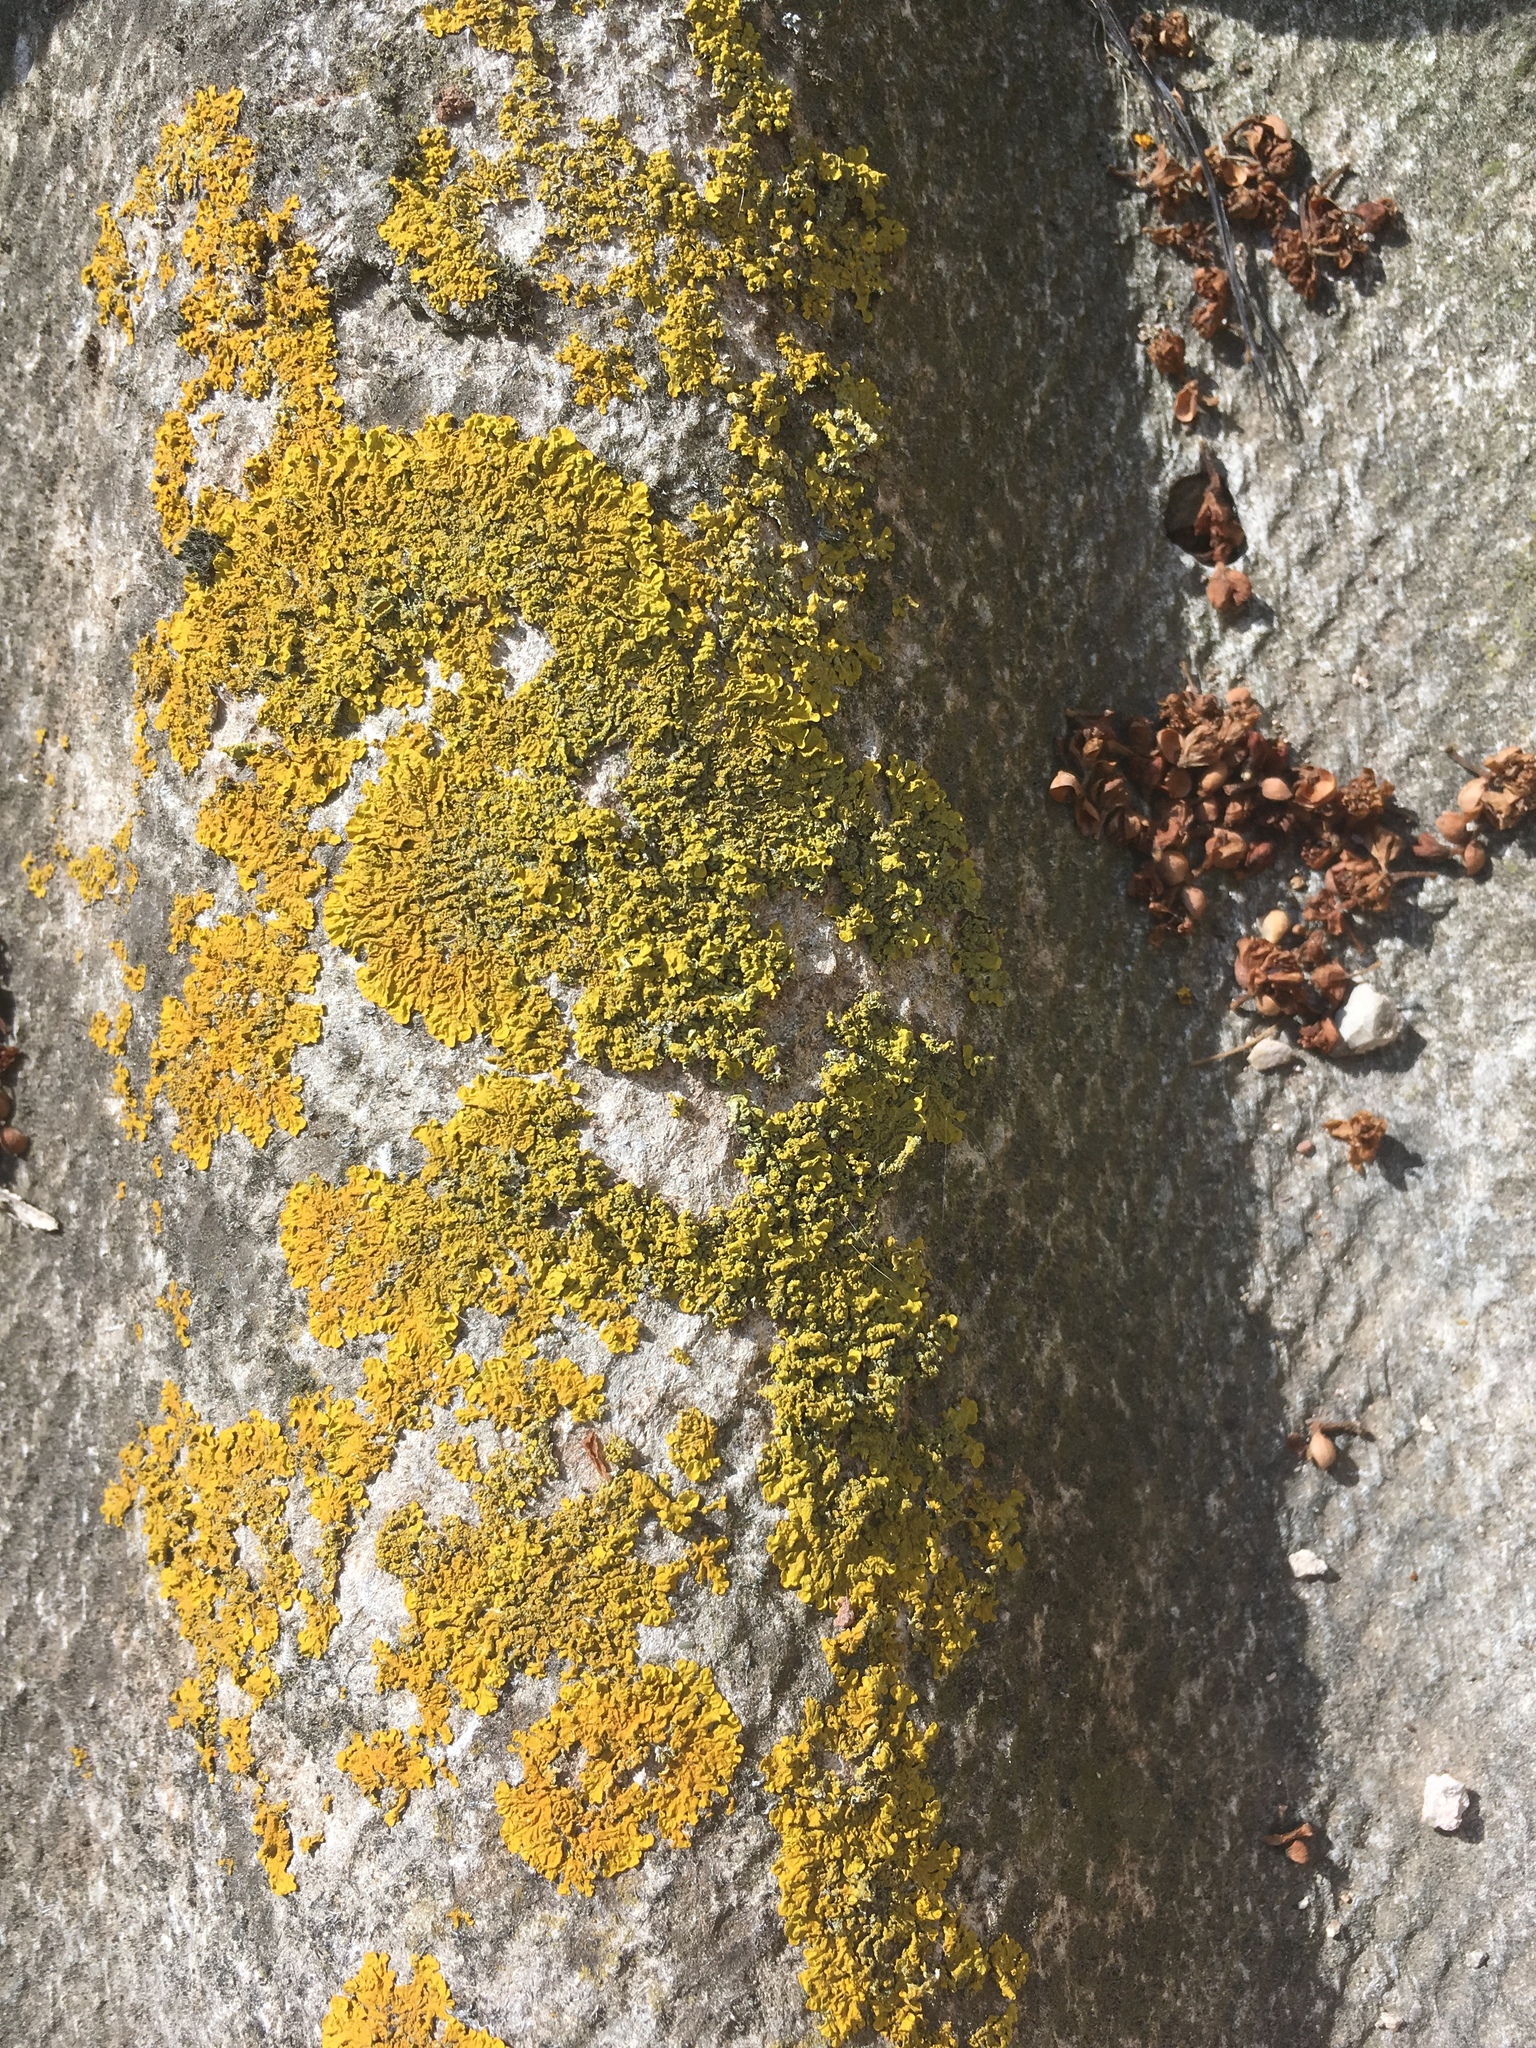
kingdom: Fungi
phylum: Ascomycota
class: Lecanoromycetes
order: Teloschistales
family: Teloschistaceae
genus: Xanthoria
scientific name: Xanthoria parietina
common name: Common orange lichen
